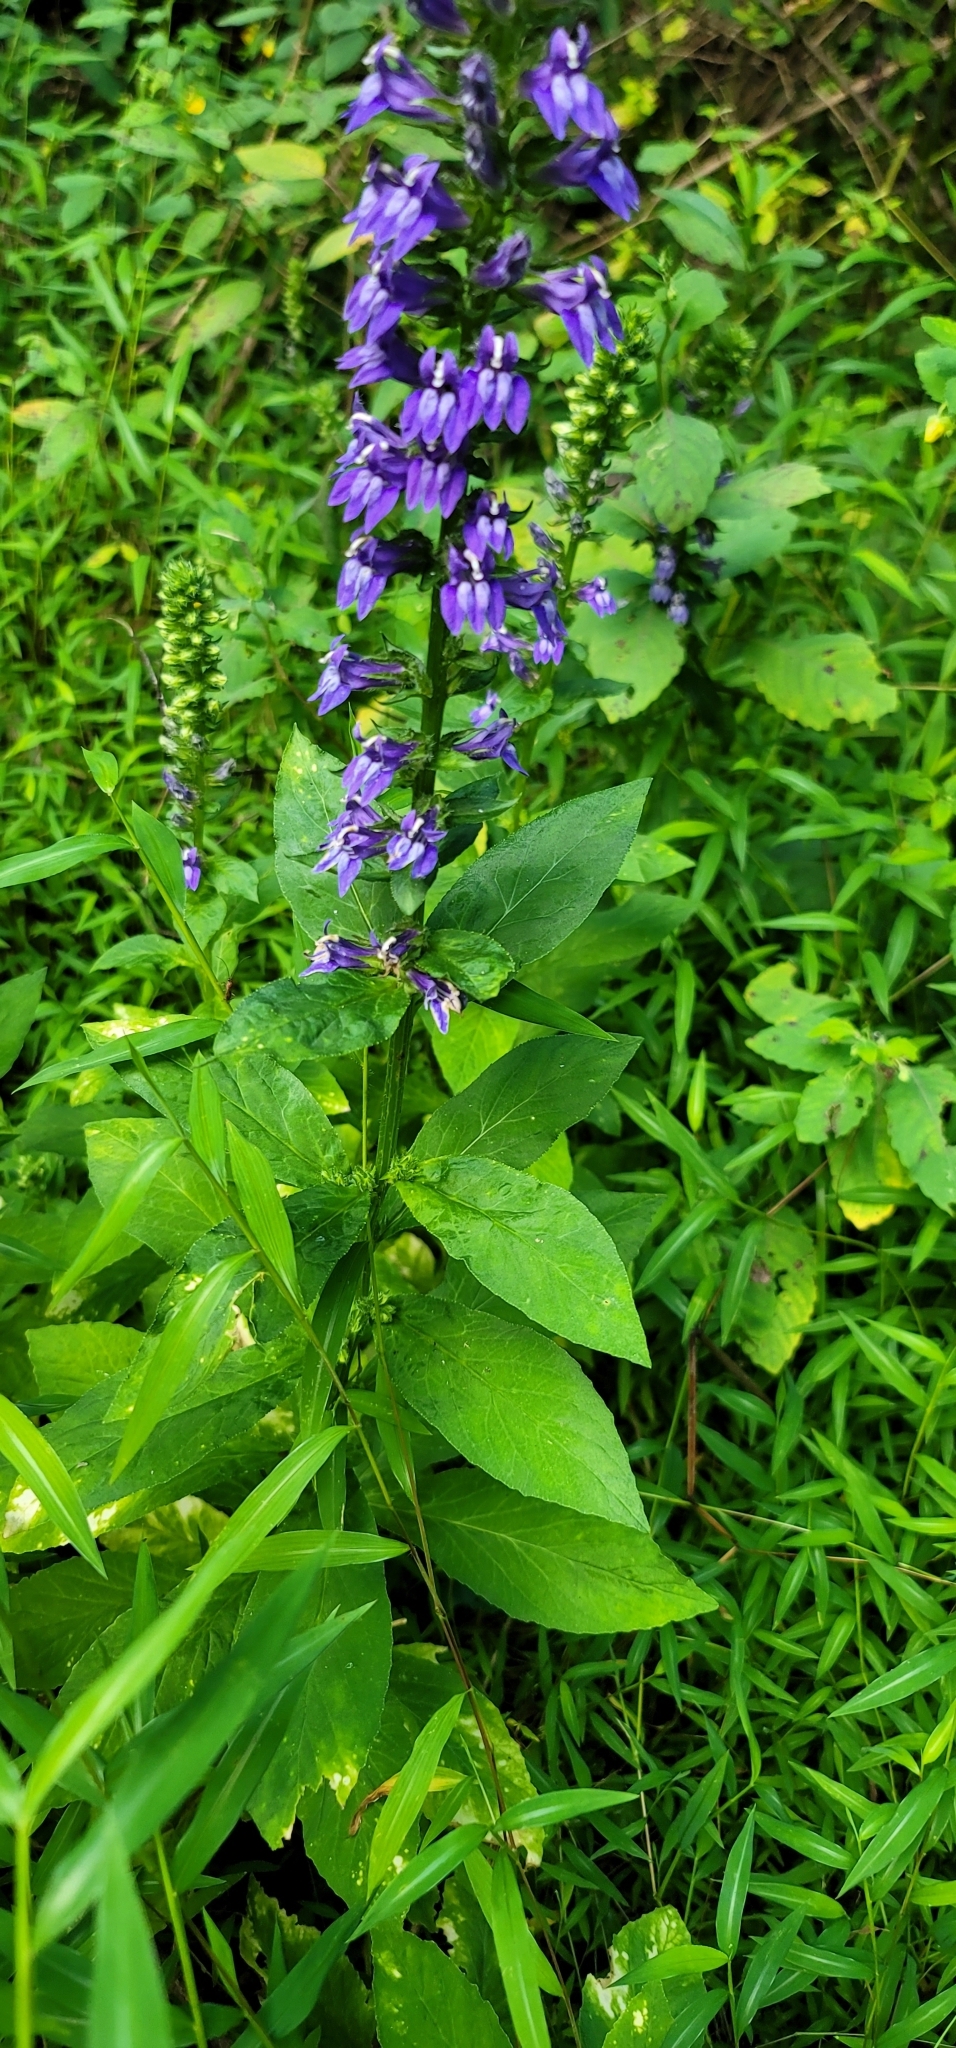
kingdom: Plantae
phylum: Tracheophyta
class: Magnoliopsida
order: Asterales
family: Campanulaceae
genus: Lobelia
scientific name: Lobelia siphilitica
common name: Great lobelia
